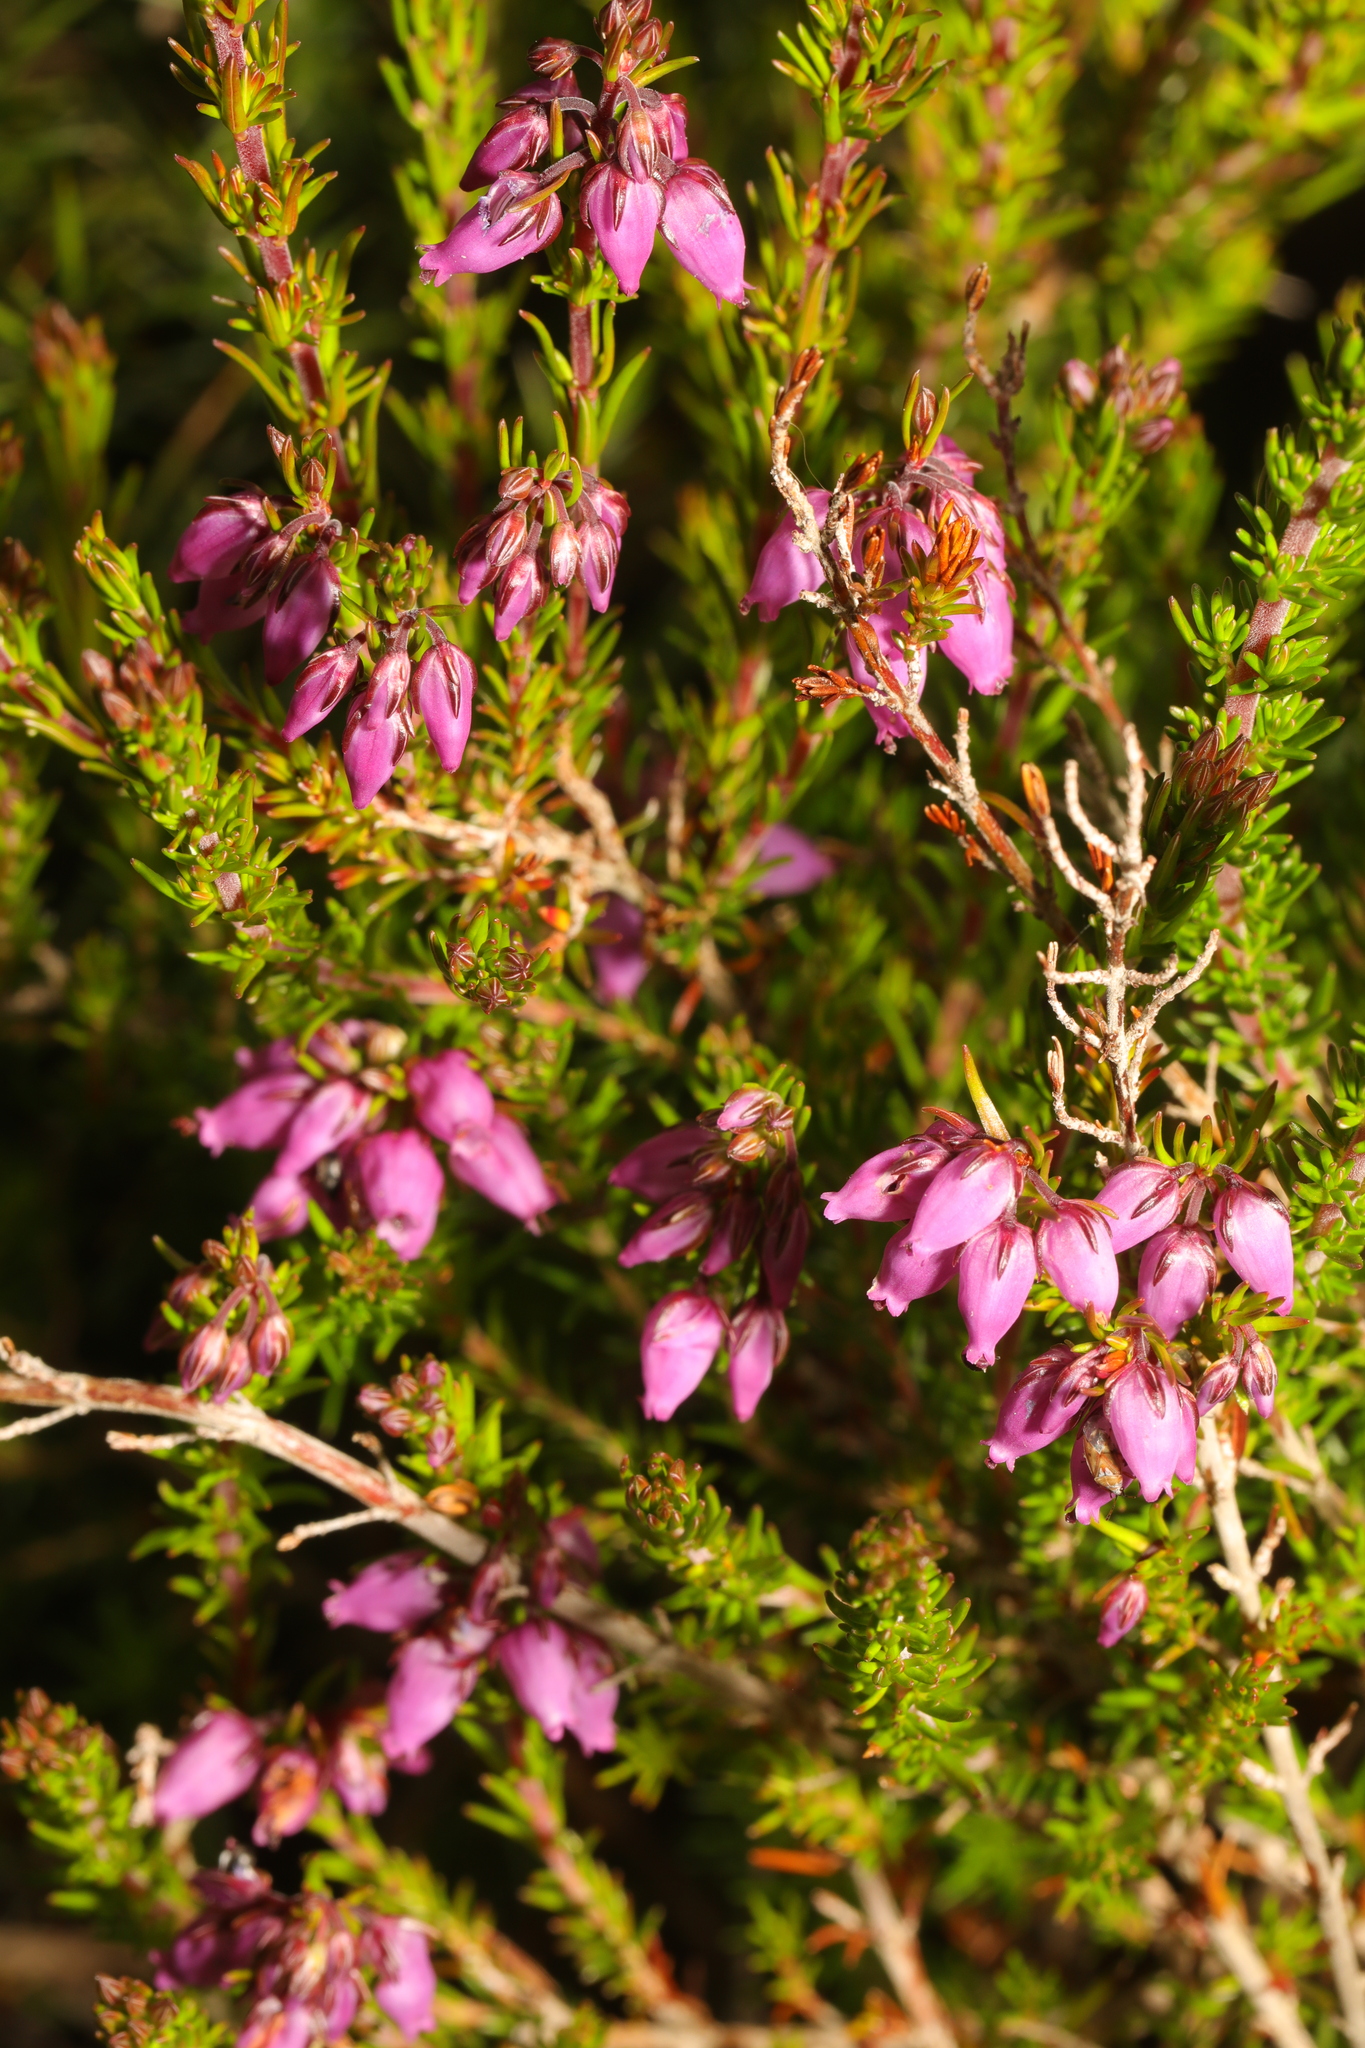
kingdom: Plantae
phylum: Tracheophyta
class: Magnoliopsida
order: Ericales
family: Ericaceae
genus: Erica
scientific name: Erica cinerea
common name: Bell heather
